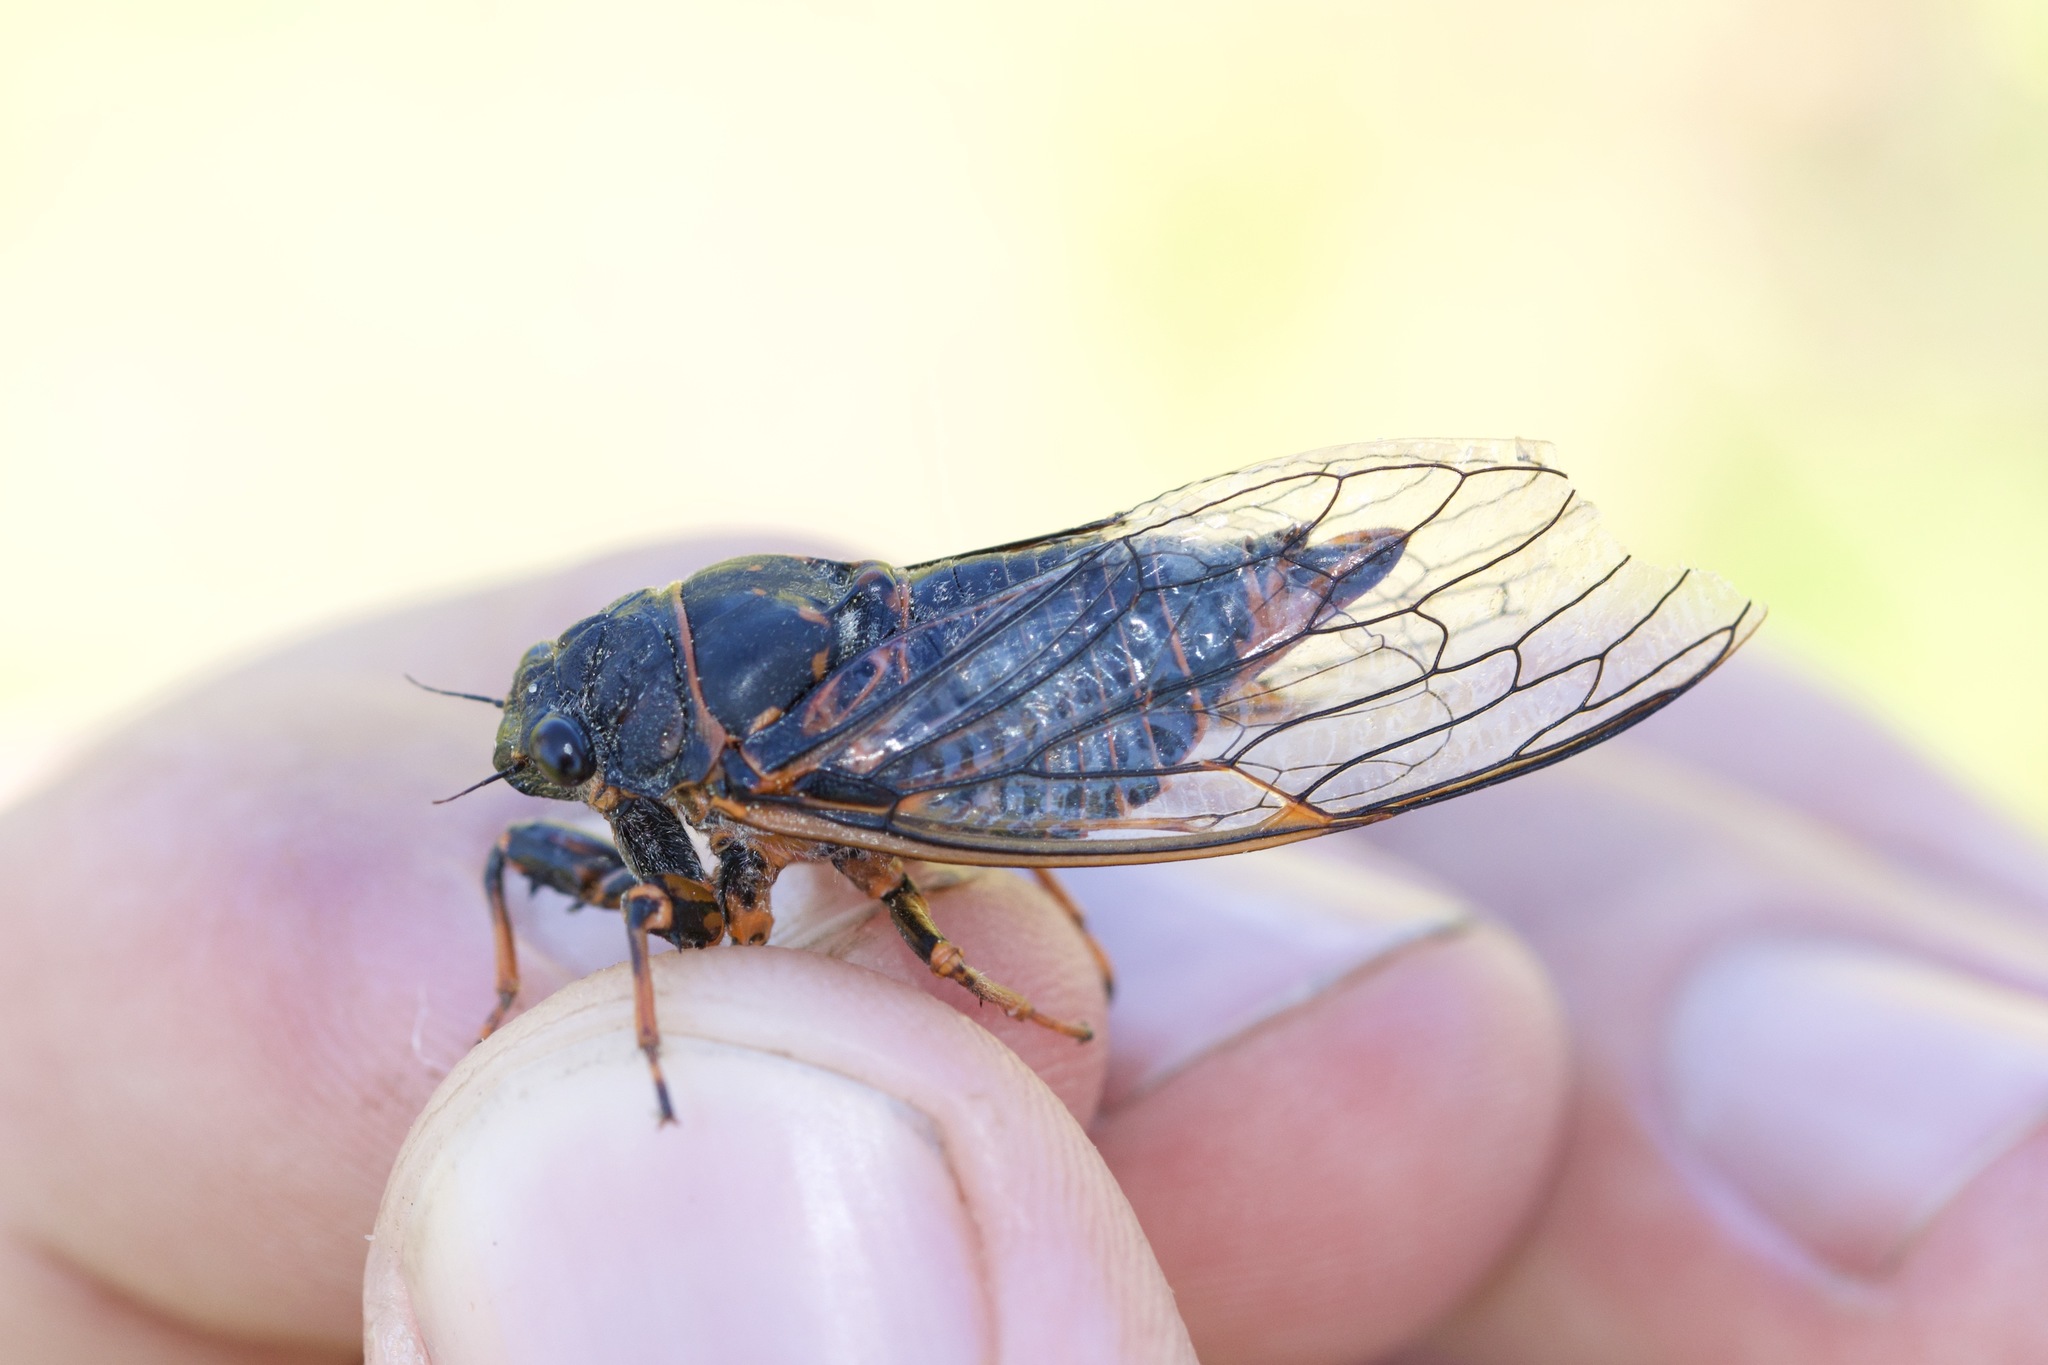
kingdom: Animalia
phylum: Arthropoda
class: Insecta
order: Hemiptera
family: Cicadidae
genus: Okanagana
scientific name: Okanagana rimosa
